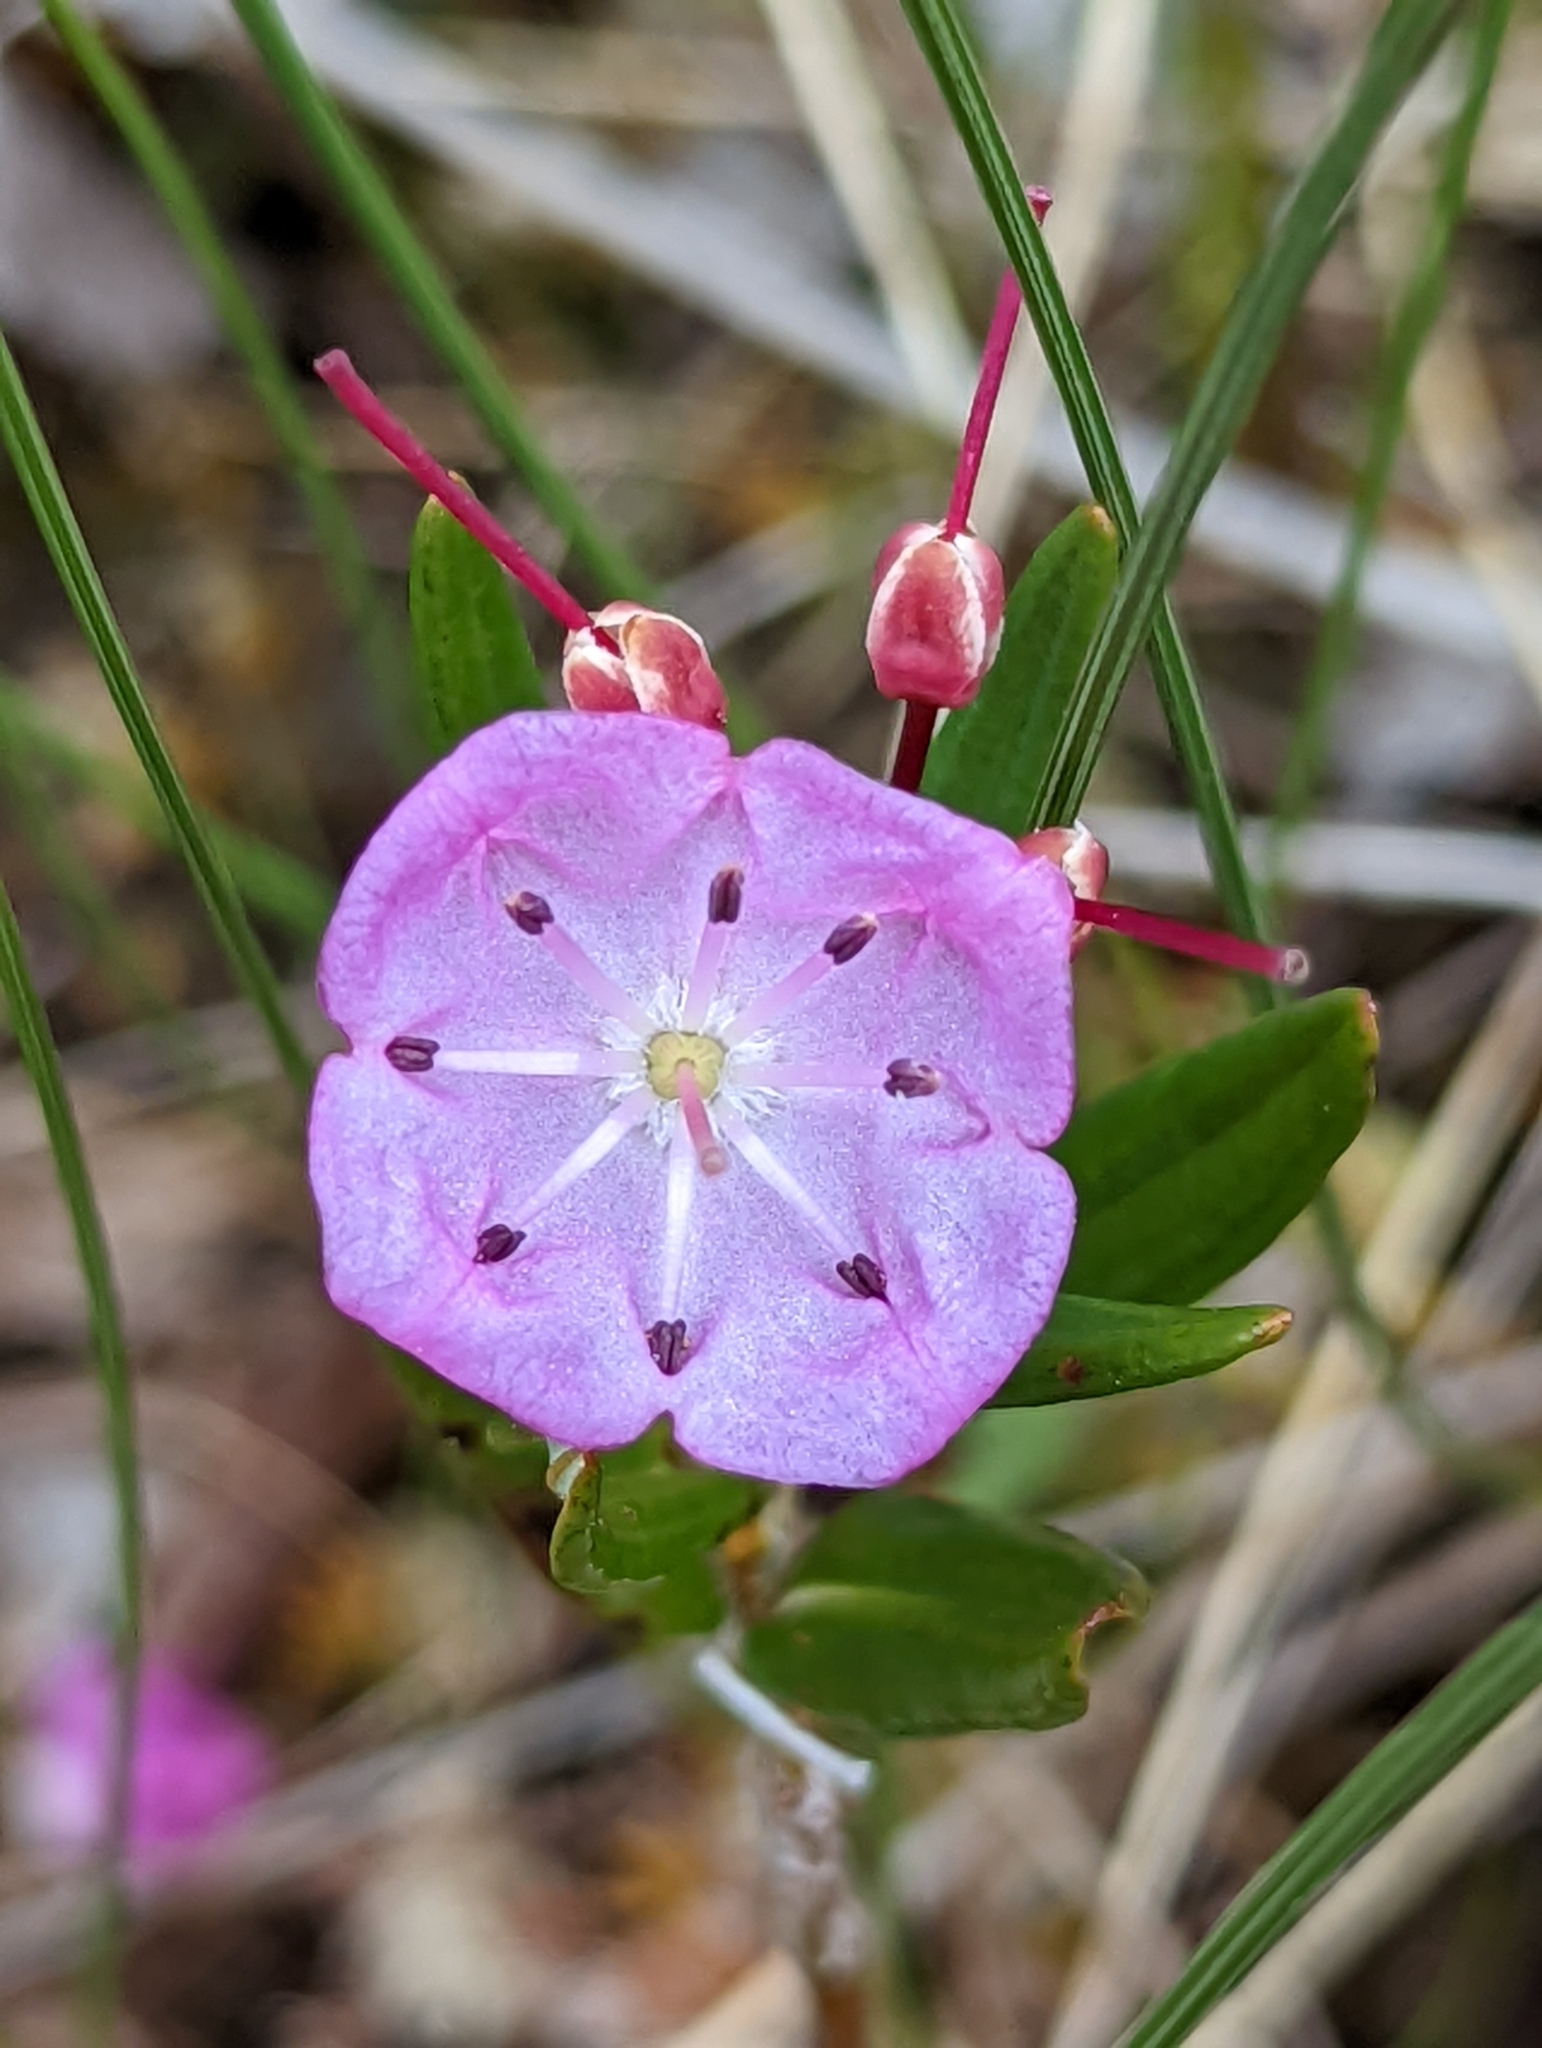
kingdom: Plantae
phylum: Tracheophyta
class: Magnoliopsida
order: Ericales
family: Ericaceae
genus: Kalmia
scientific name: Kalmia microphylla
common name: Alpine bog laurel
